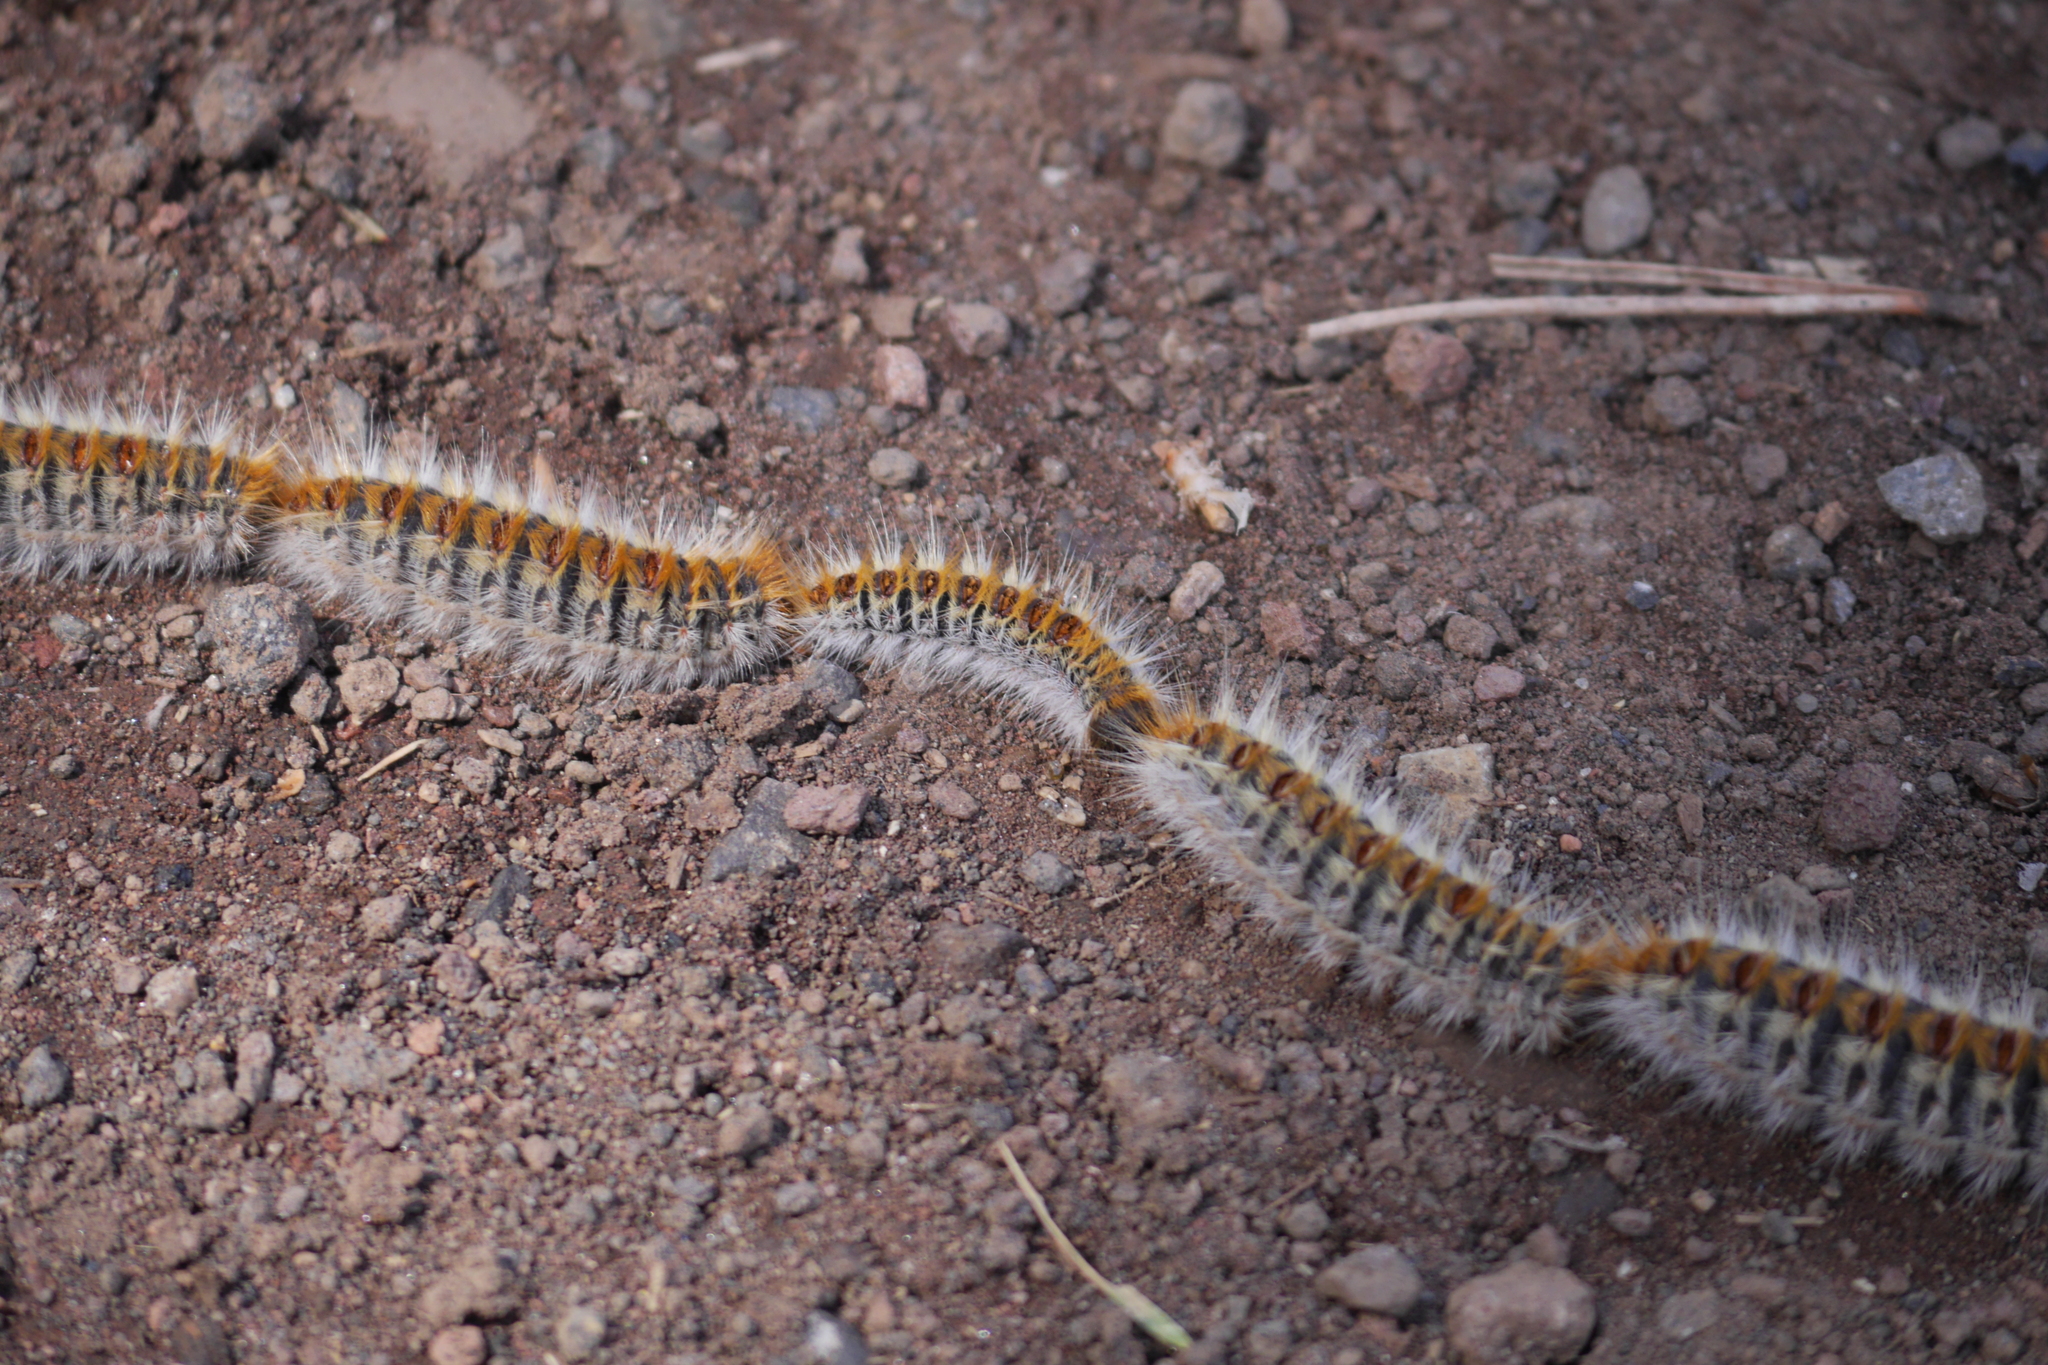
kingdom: Animalia
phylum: Arthropoda
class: Insecta
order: Lepidoptera
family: Notodontidae
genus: Thaumetopoea
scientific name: Thaumetopoea pityocampa
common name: Pine processionary
